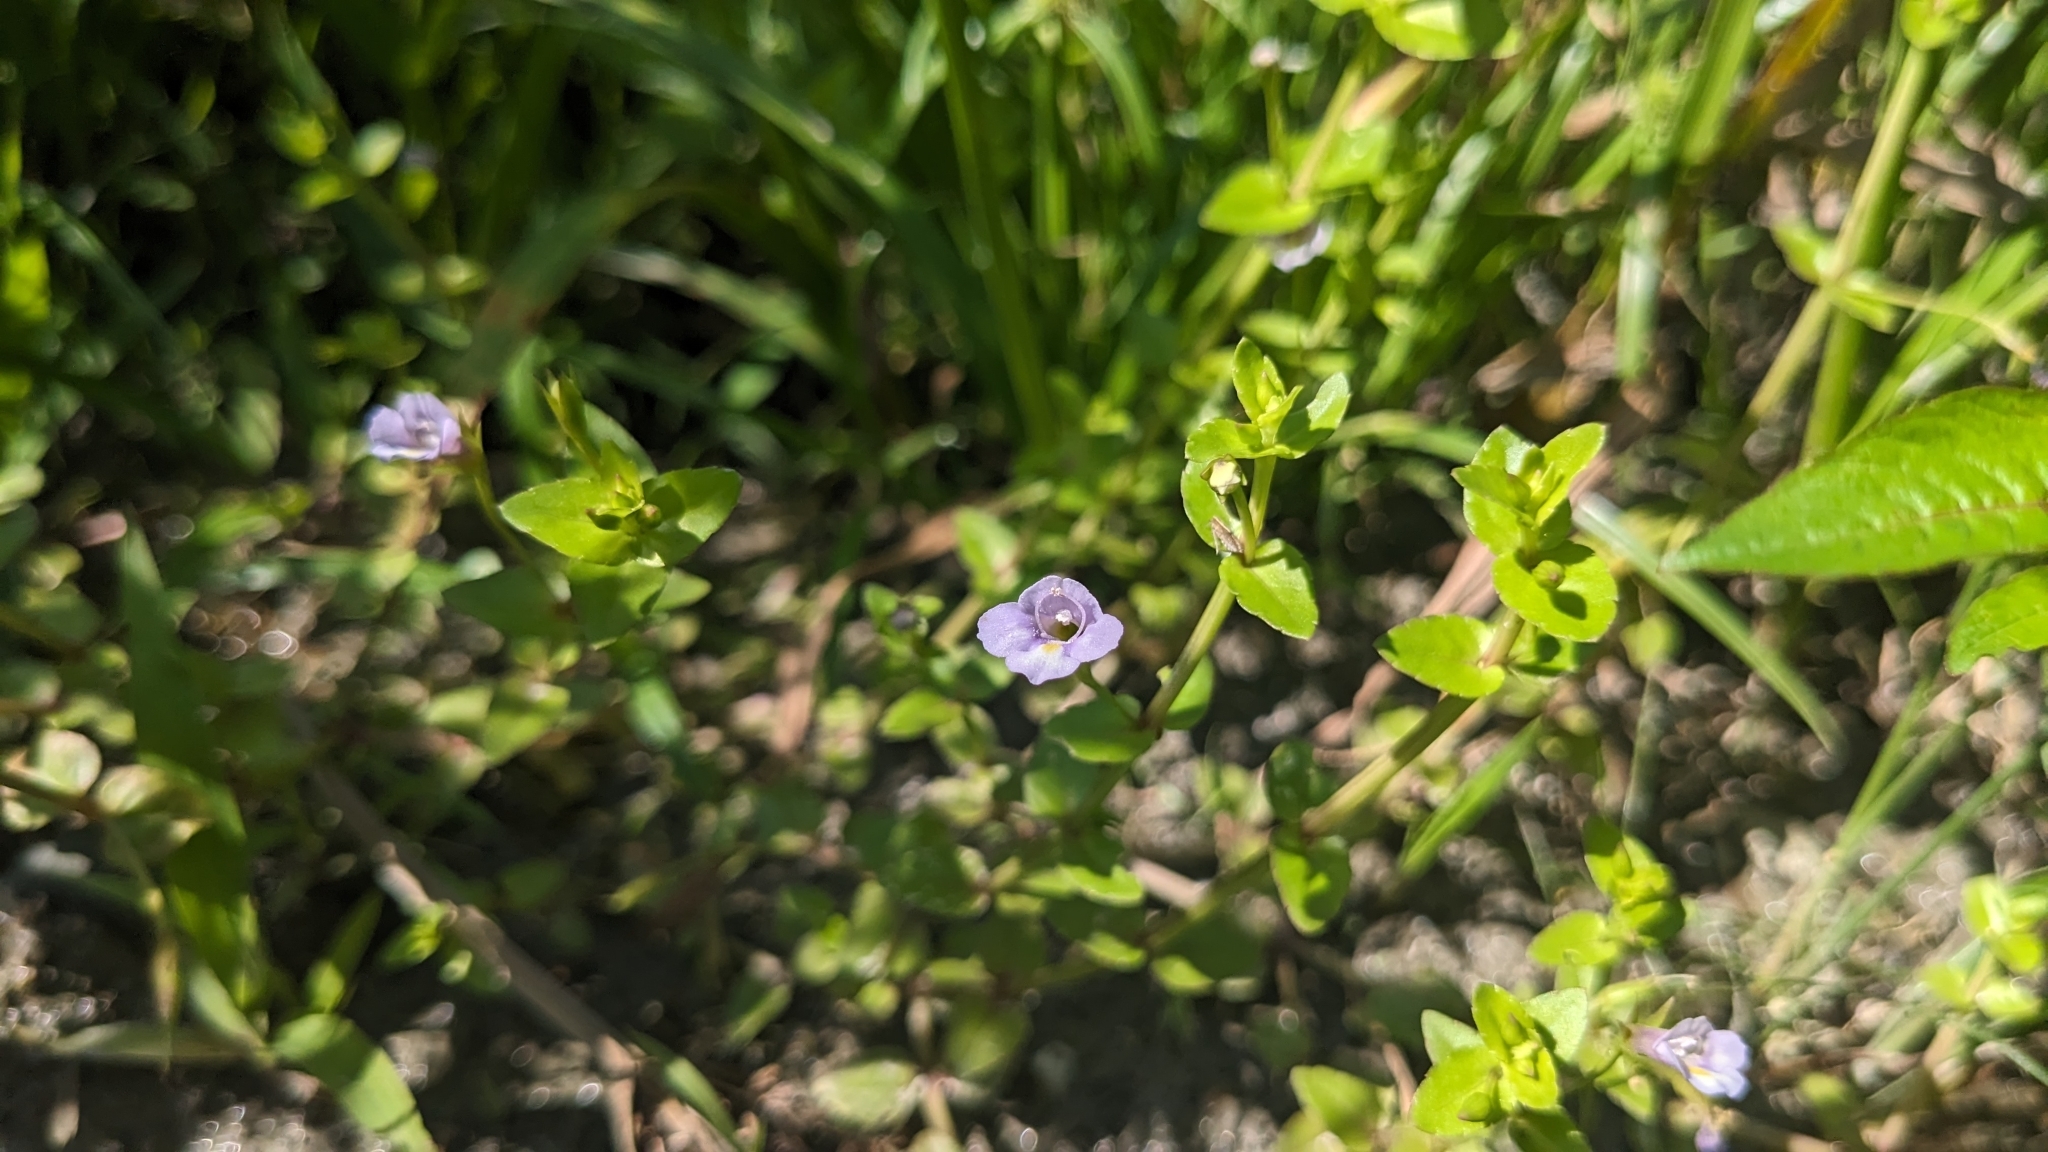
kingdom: Plantae
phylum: Tracheophyta
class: Magnoliopsida
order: Lamiales
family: Linderniaceae
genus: Torenia
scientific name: Torenia anagallis
